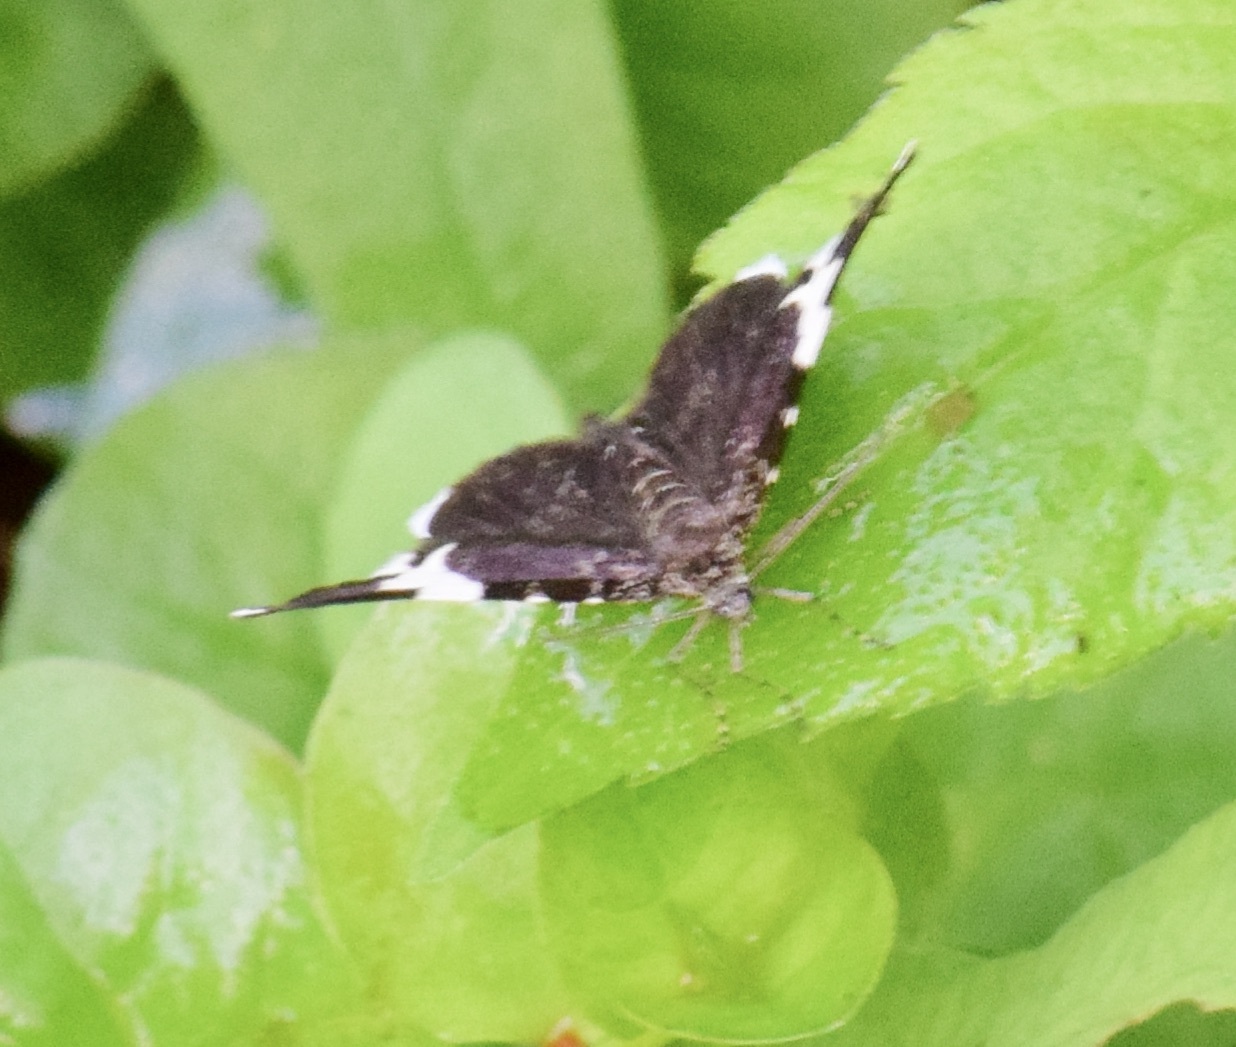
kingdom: Animalia
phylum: Arthropoda
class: Insecta
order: Lepidoptera
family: Geometridae
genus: Trichodezia
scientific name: Trichodezia albovittata
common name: White striped black
